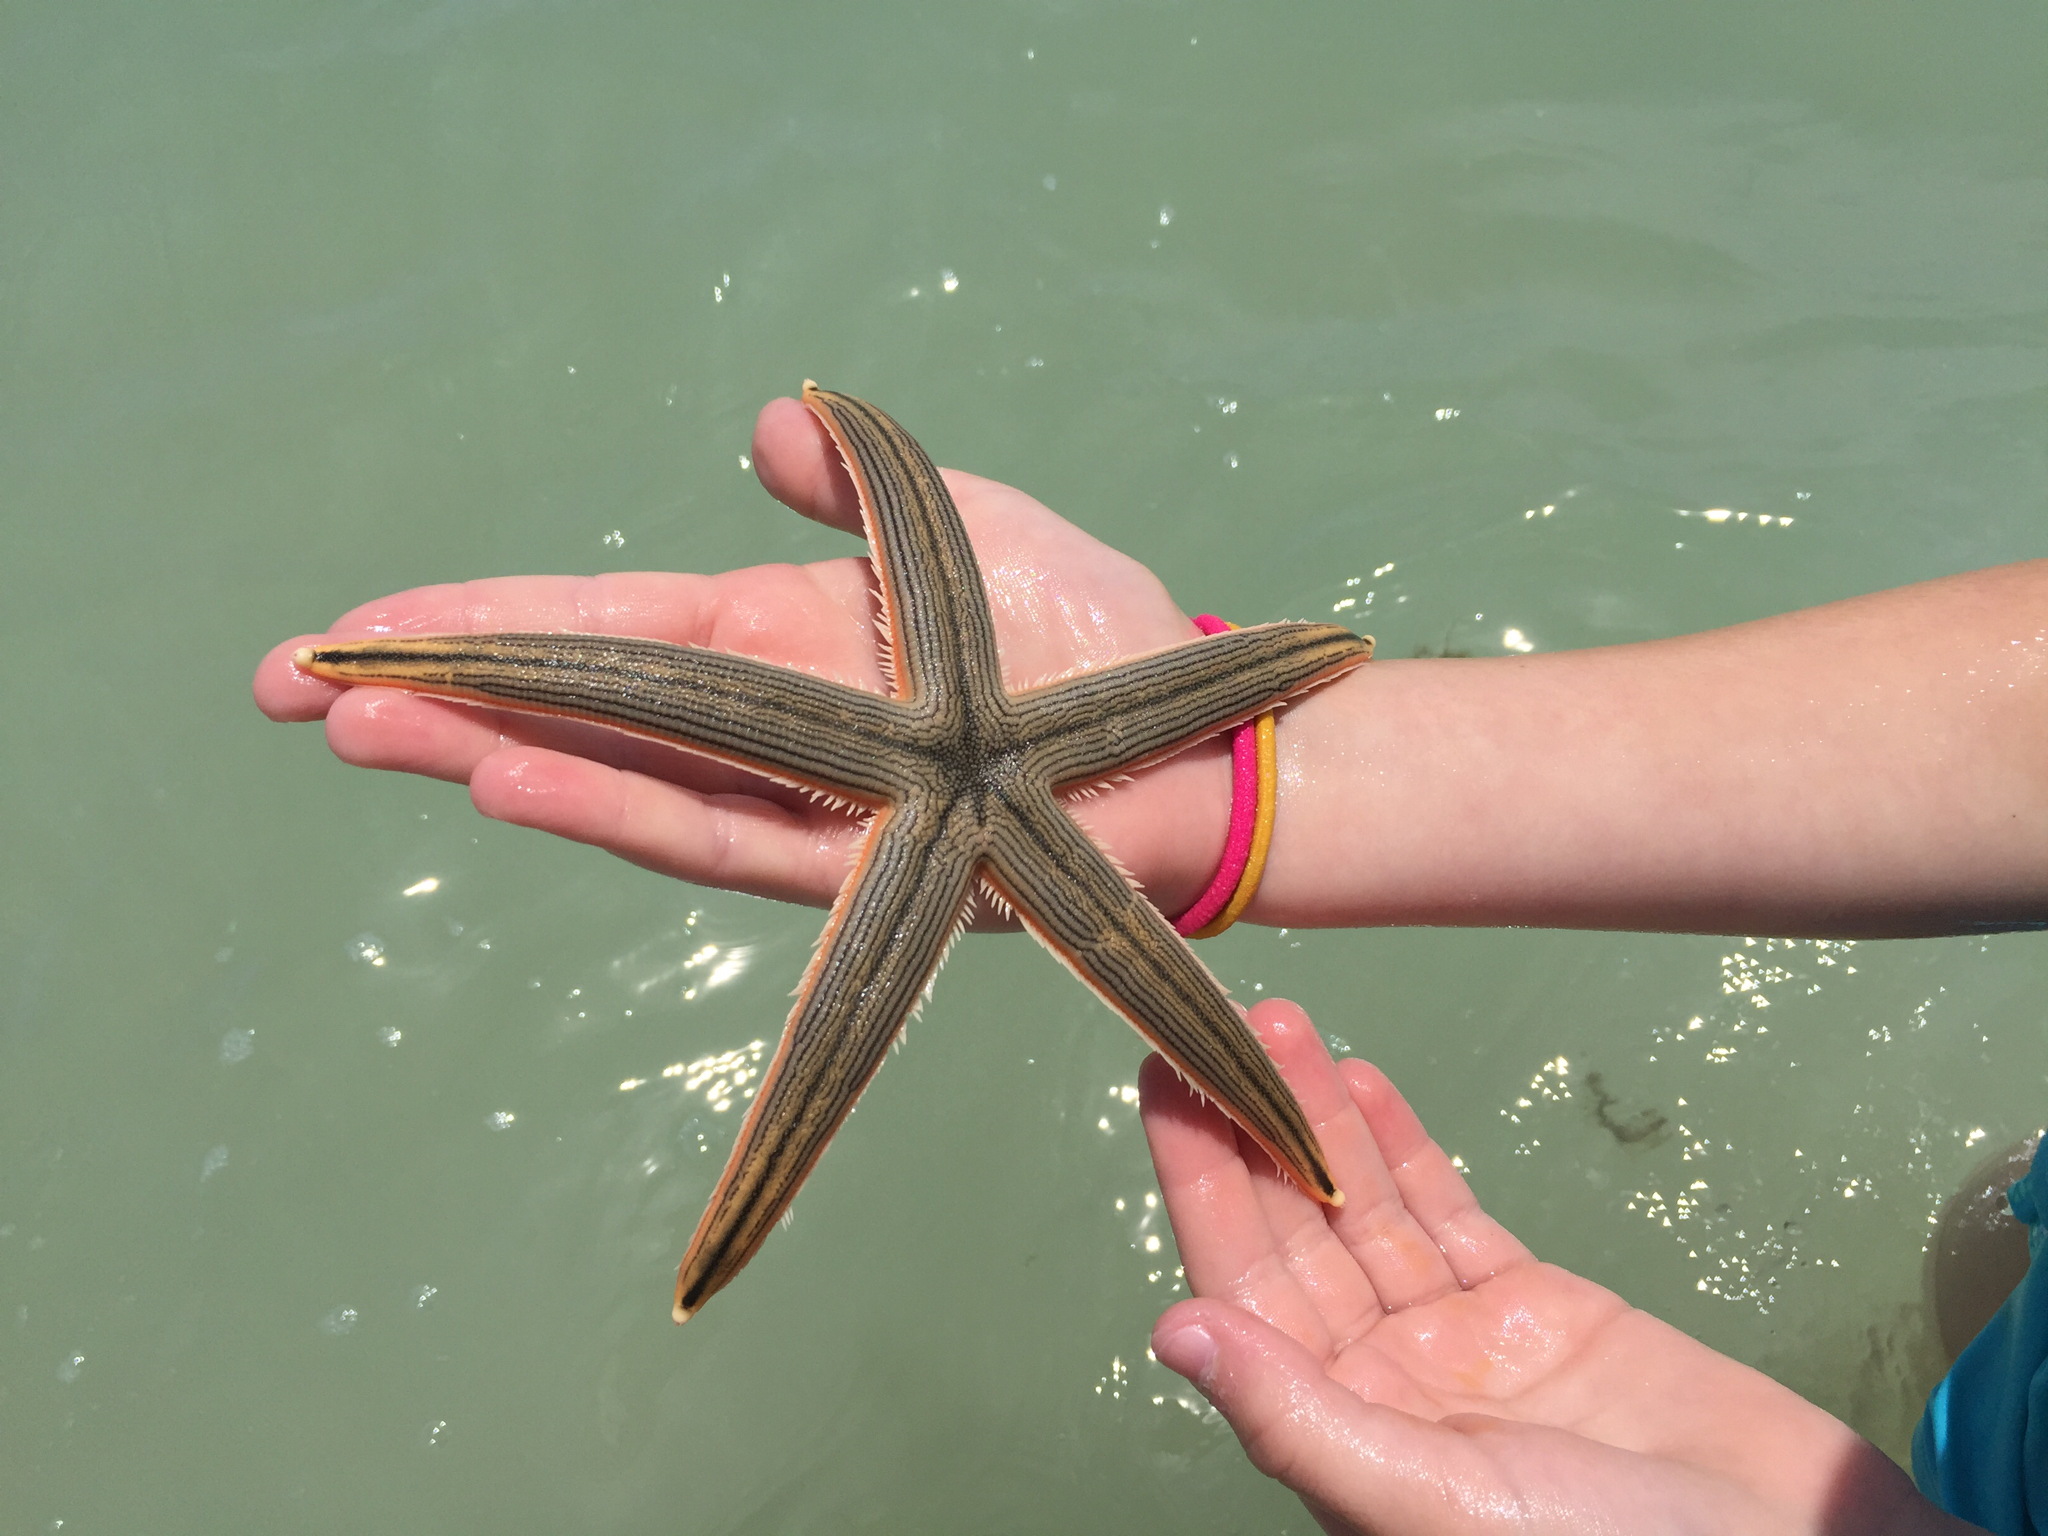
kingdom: Animalia
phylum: Echinodermata
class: Asteroidea
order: Paxillosida
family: Luidiidae
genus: Luidia
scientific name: Luidia clathrata
